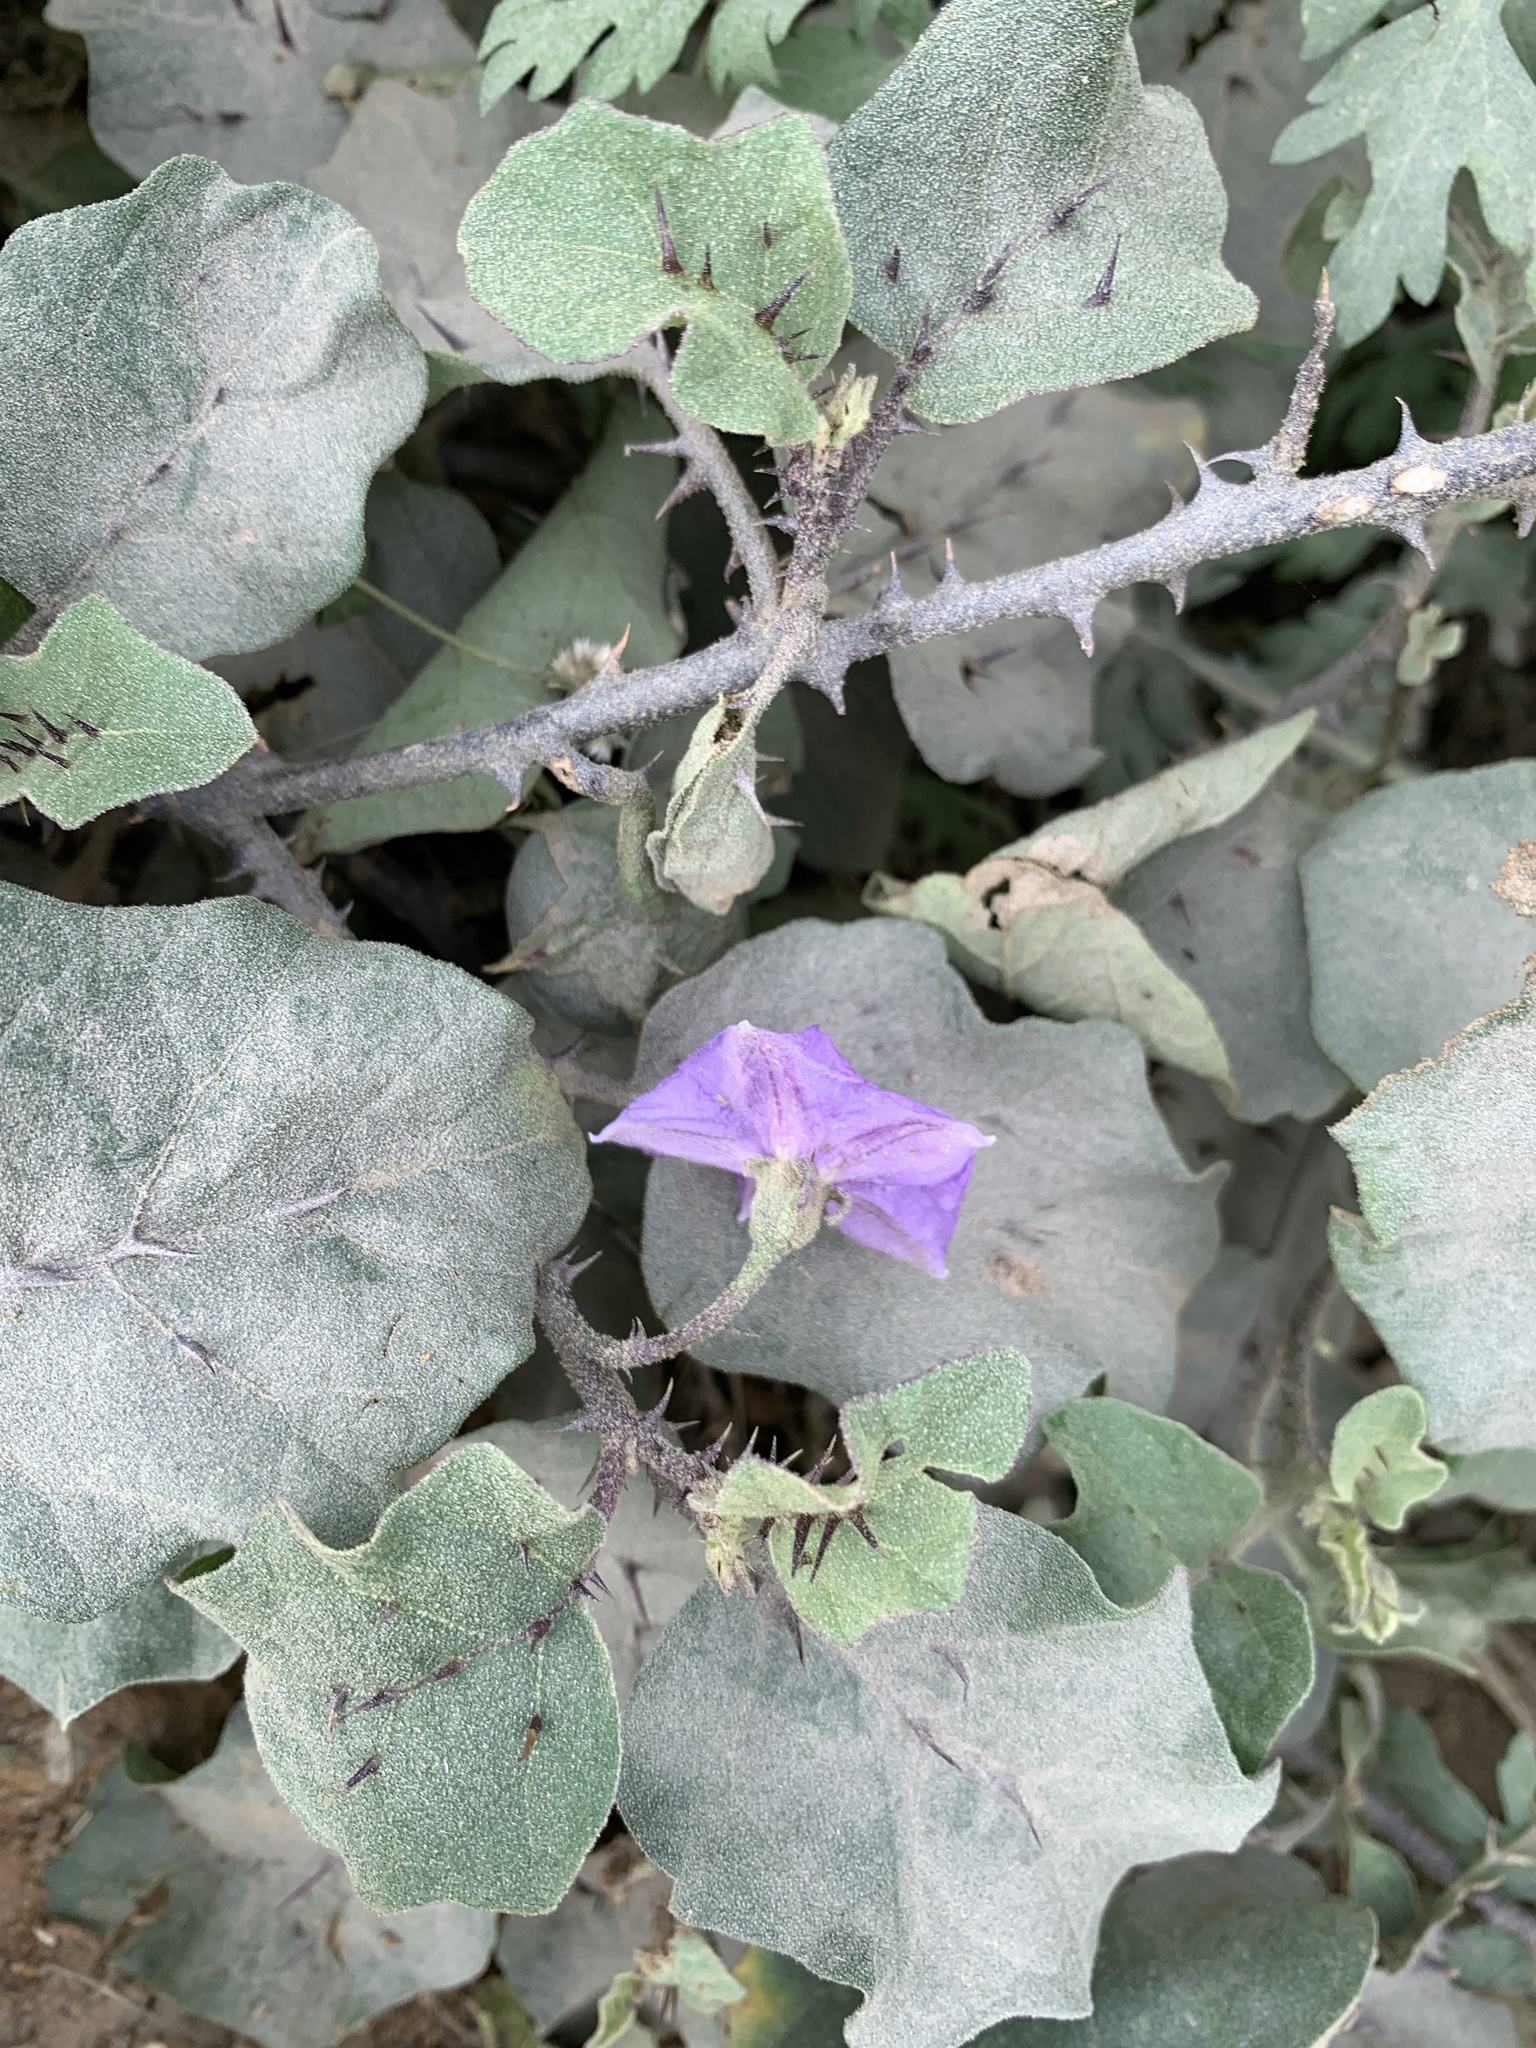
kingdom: Plantae
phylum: Tracheophyta
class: Magnoliopsida
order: Solanales
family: Solanaceae
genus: Solanum
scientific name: Solanum insanum
